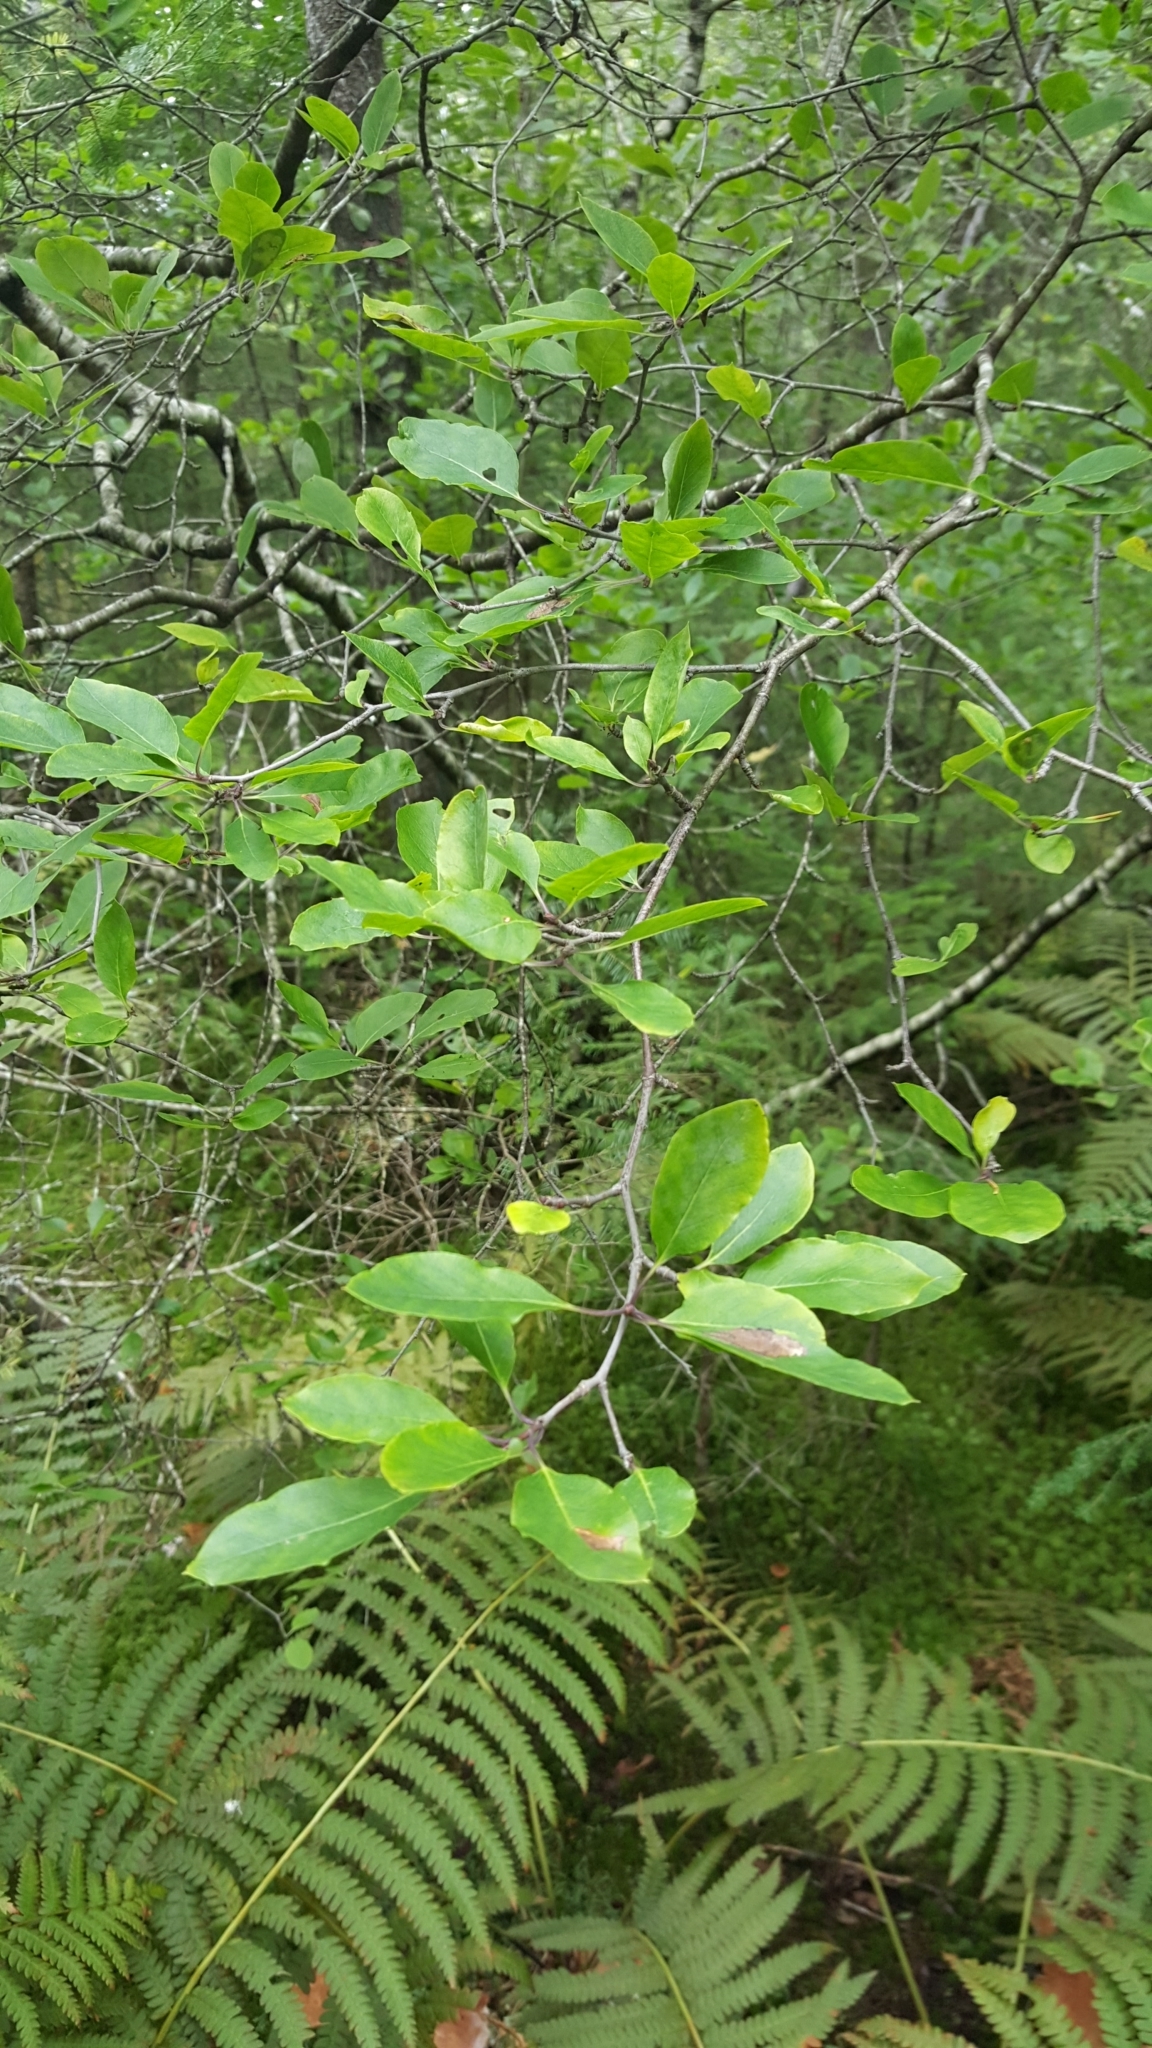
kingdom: Plantae
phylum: Tracheophyta
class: Magnoliopsida
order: Aquifoliales
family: Aquifoliaceae
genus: Ilex
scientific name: Ilex mucronata
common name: Catberry
